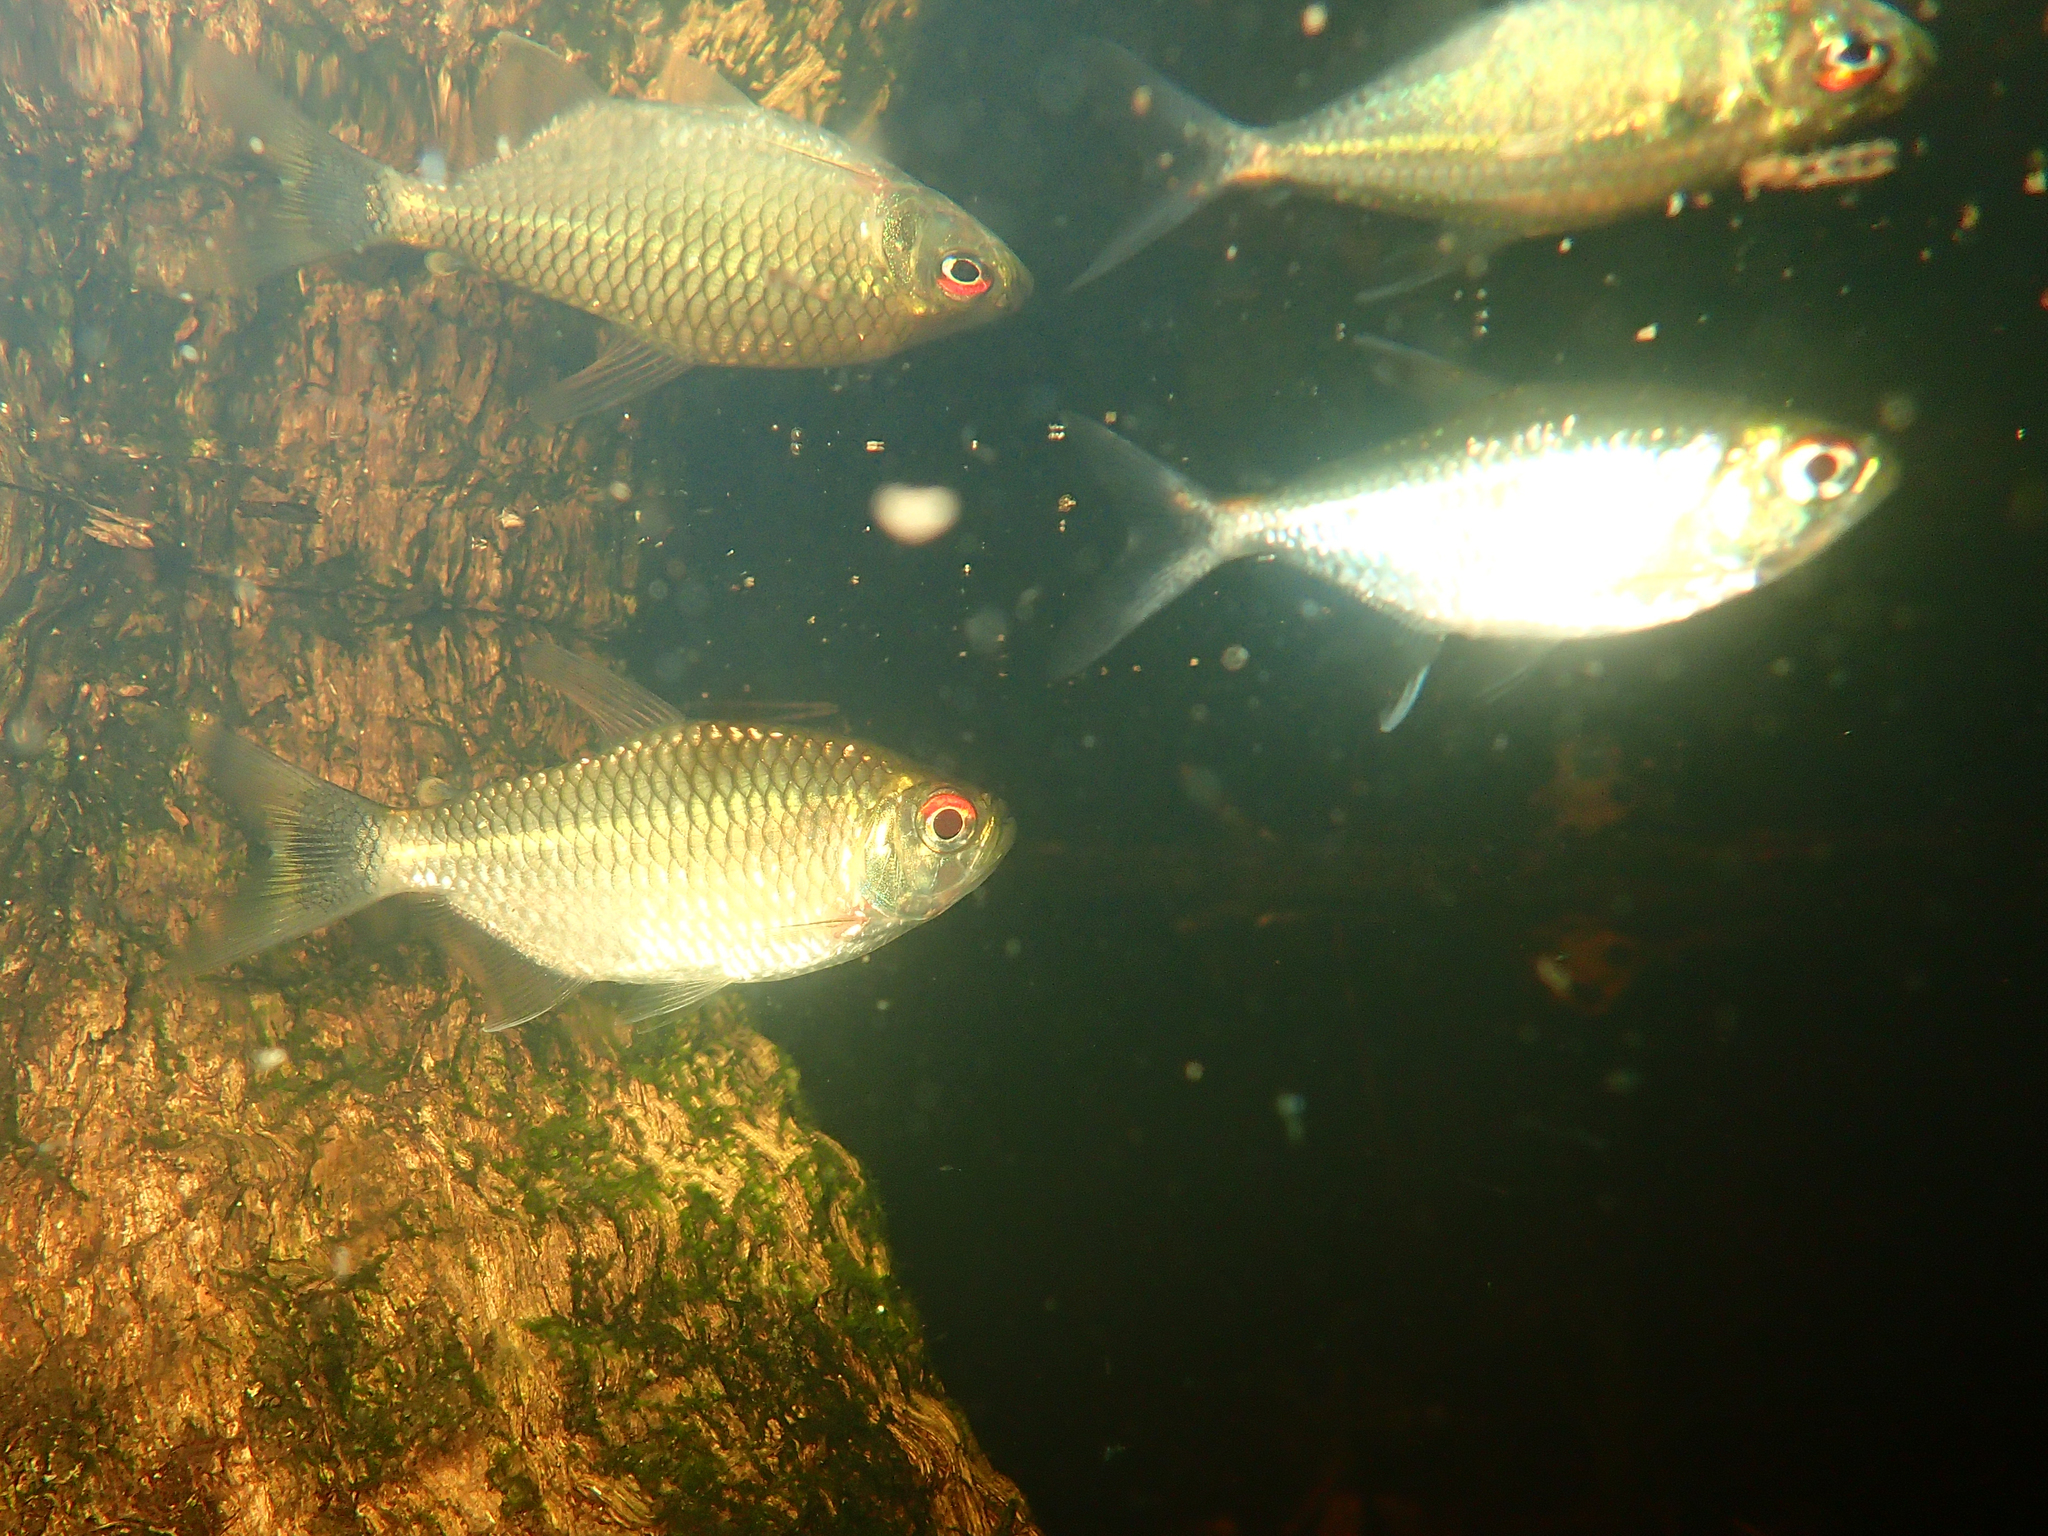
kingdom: Animalia
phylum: Chordata
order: Characiformes
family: Characidae
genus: Moenkhausia
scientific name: Moenkhausia oligolepis
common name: Glass tetra
